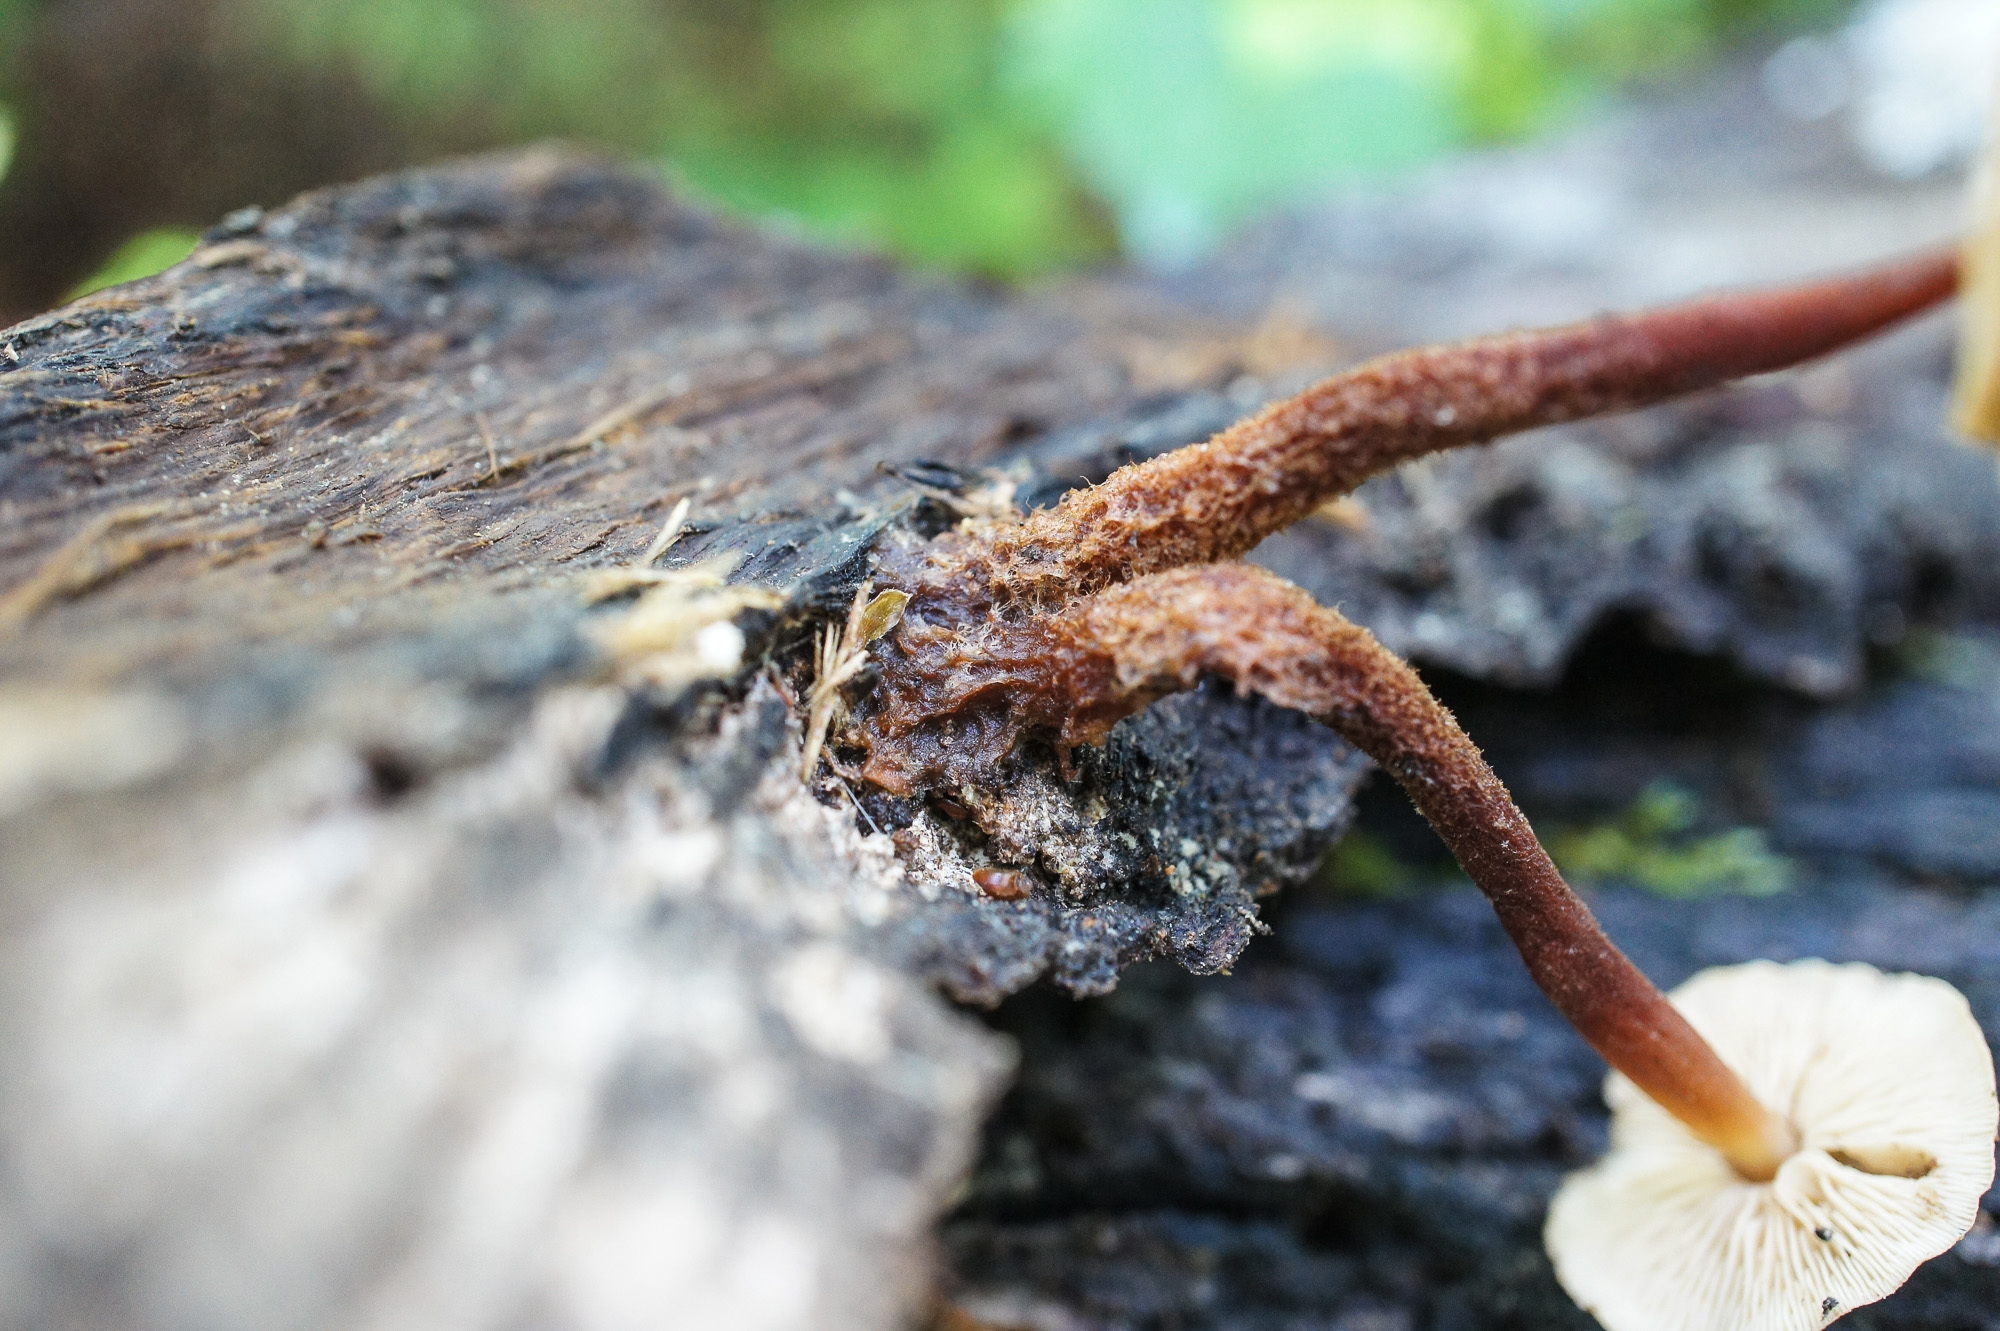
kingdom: Fungi
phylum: Basidiomycota
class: Agaricomycetes
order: Agaricales
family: Omphalotaceae
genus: Gymnopus
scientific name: Gymnopus semihirtipes
